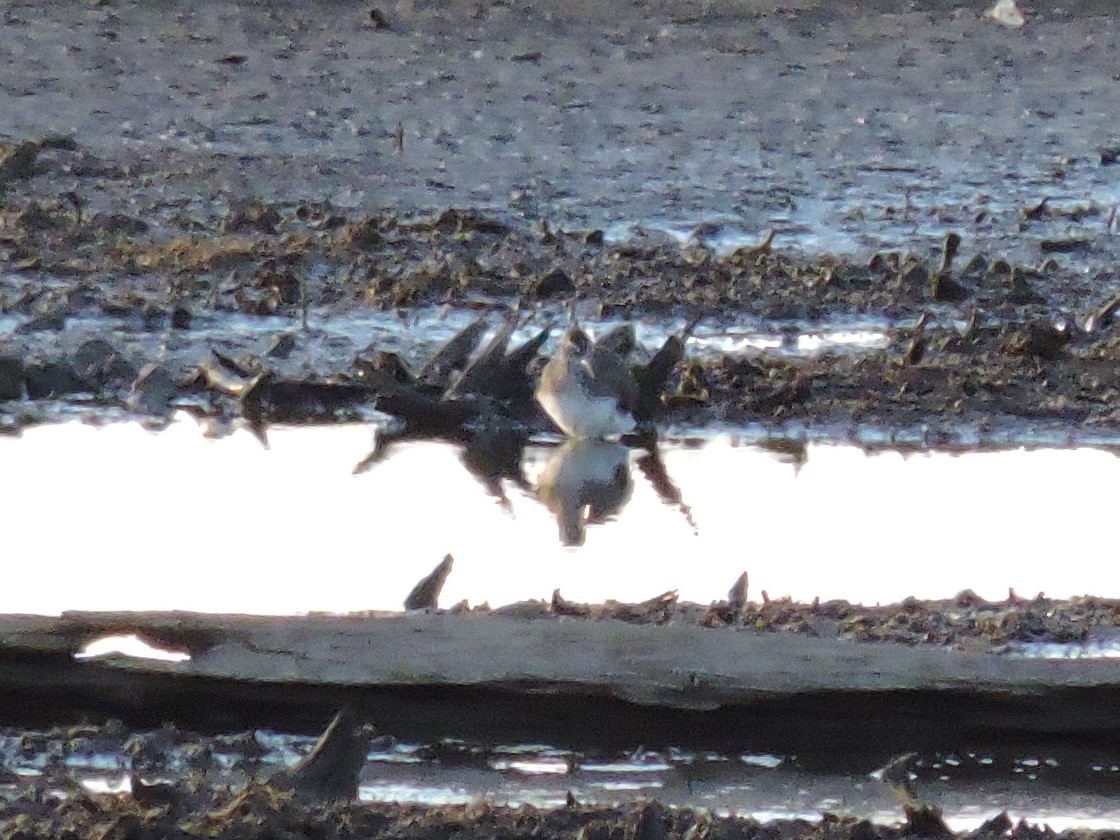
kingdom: Animalia
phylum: Chordata
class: Aves
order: Charadriiformes
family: Scolopacidae
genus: Tringa
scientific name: Tringa ochropus
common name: Green sandpiper
